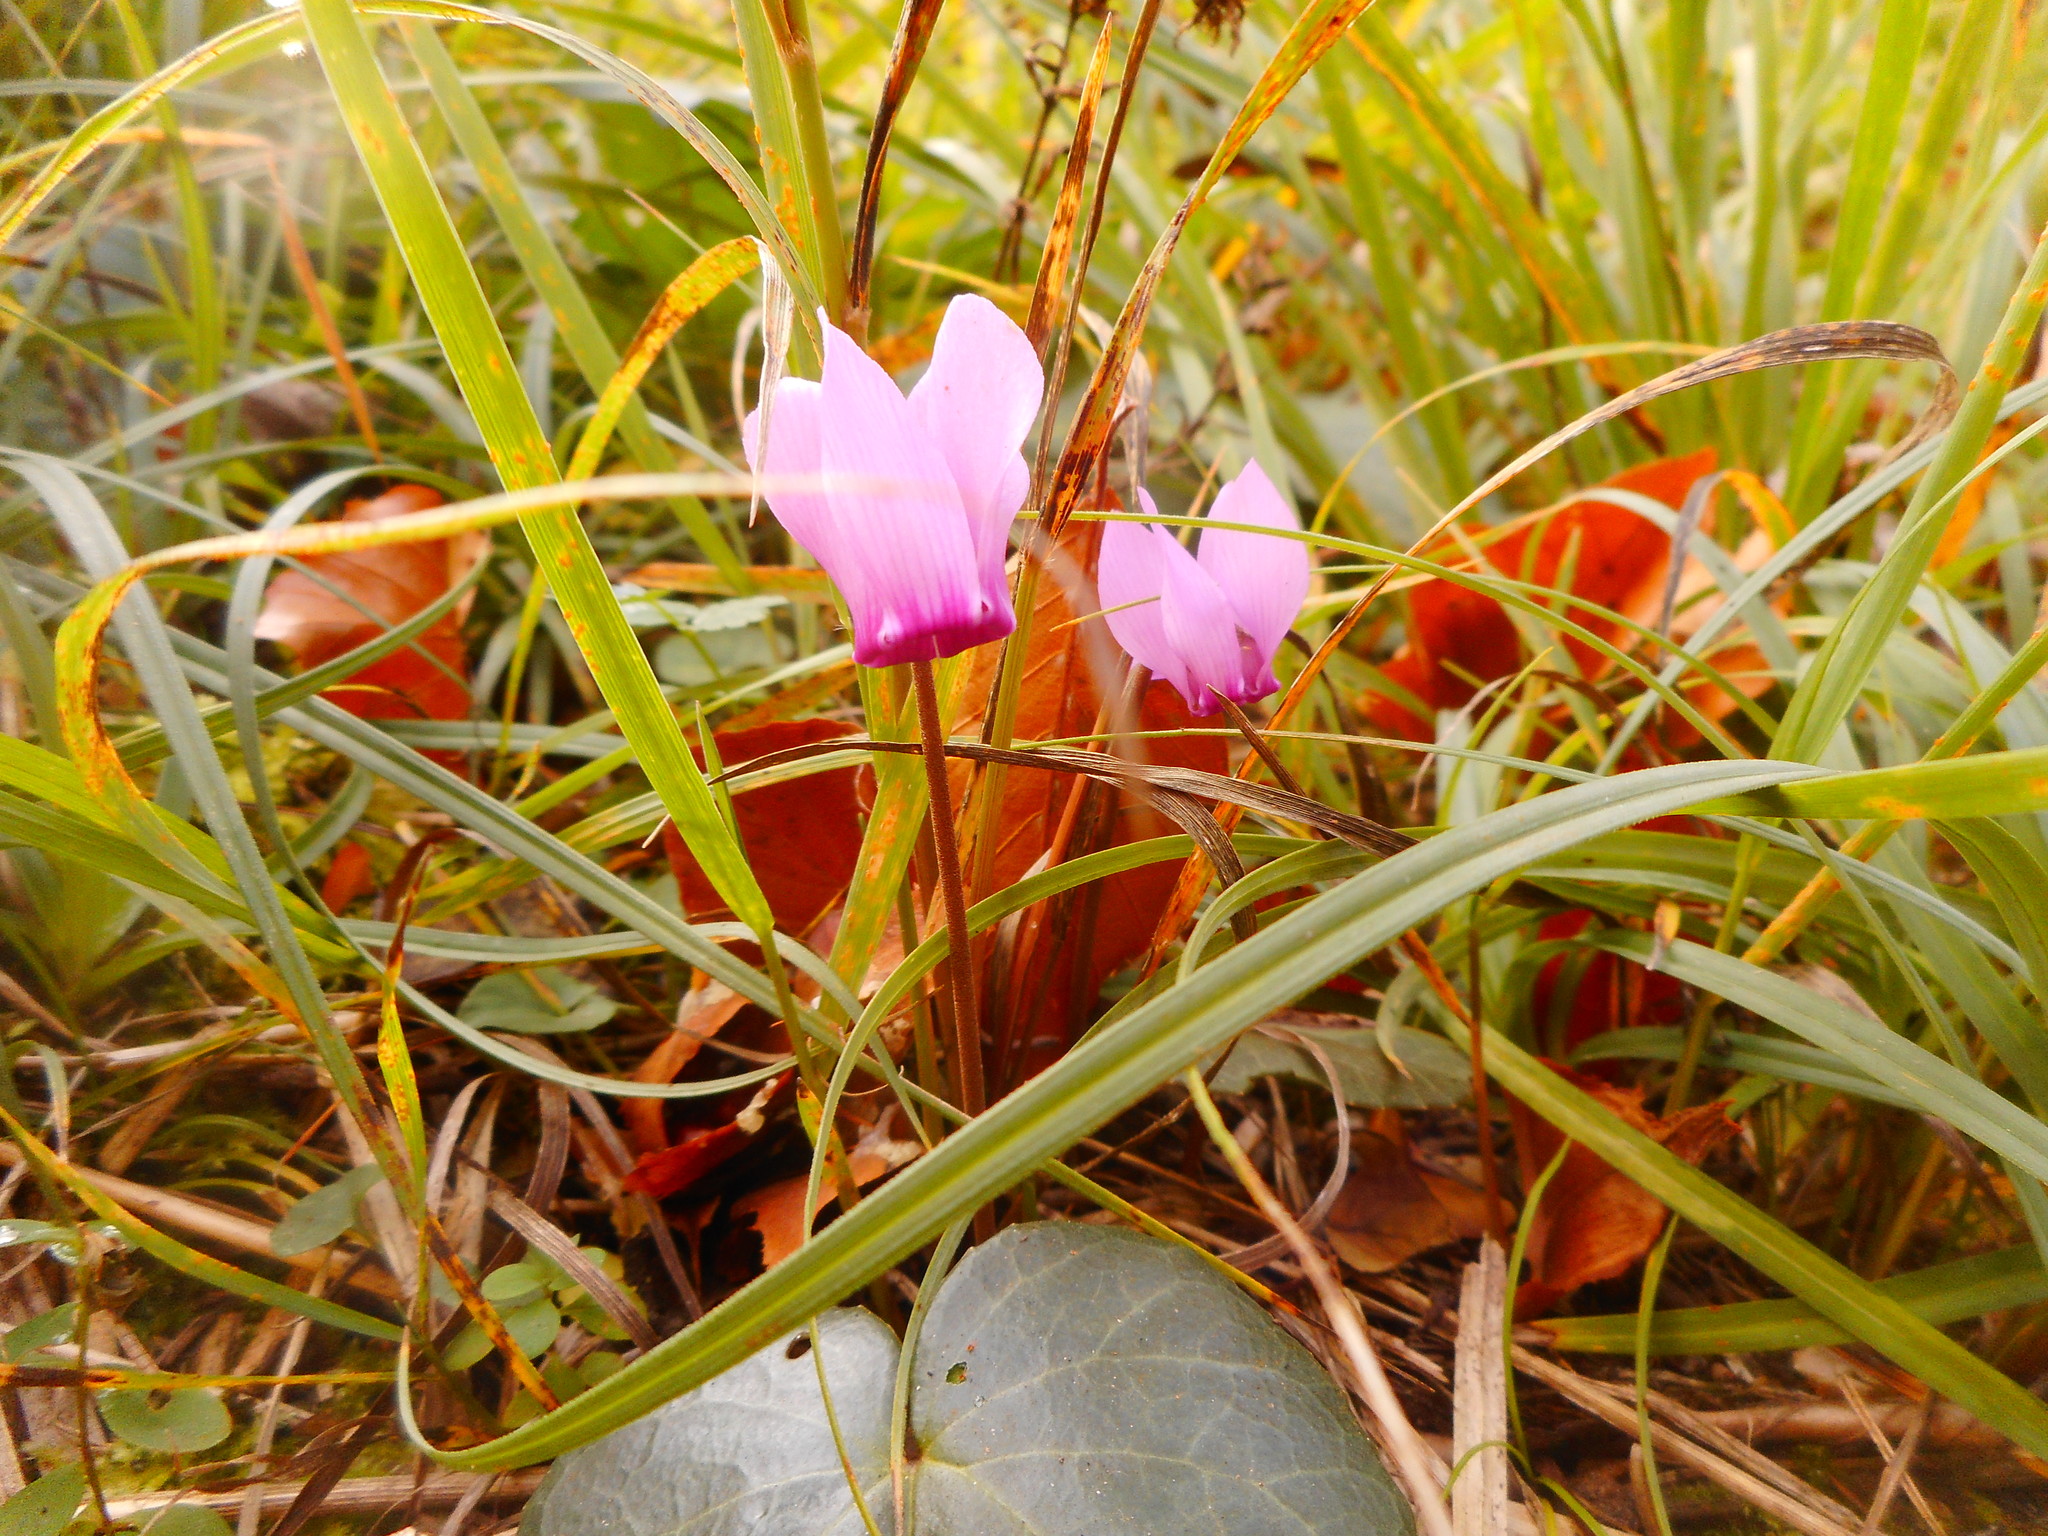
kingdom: Plantae
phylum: Tracheophyta
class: Magnoliopsida
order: Ericales
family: Primulaceae
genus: Cyclamen
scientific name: Cyclamen purpurascens
